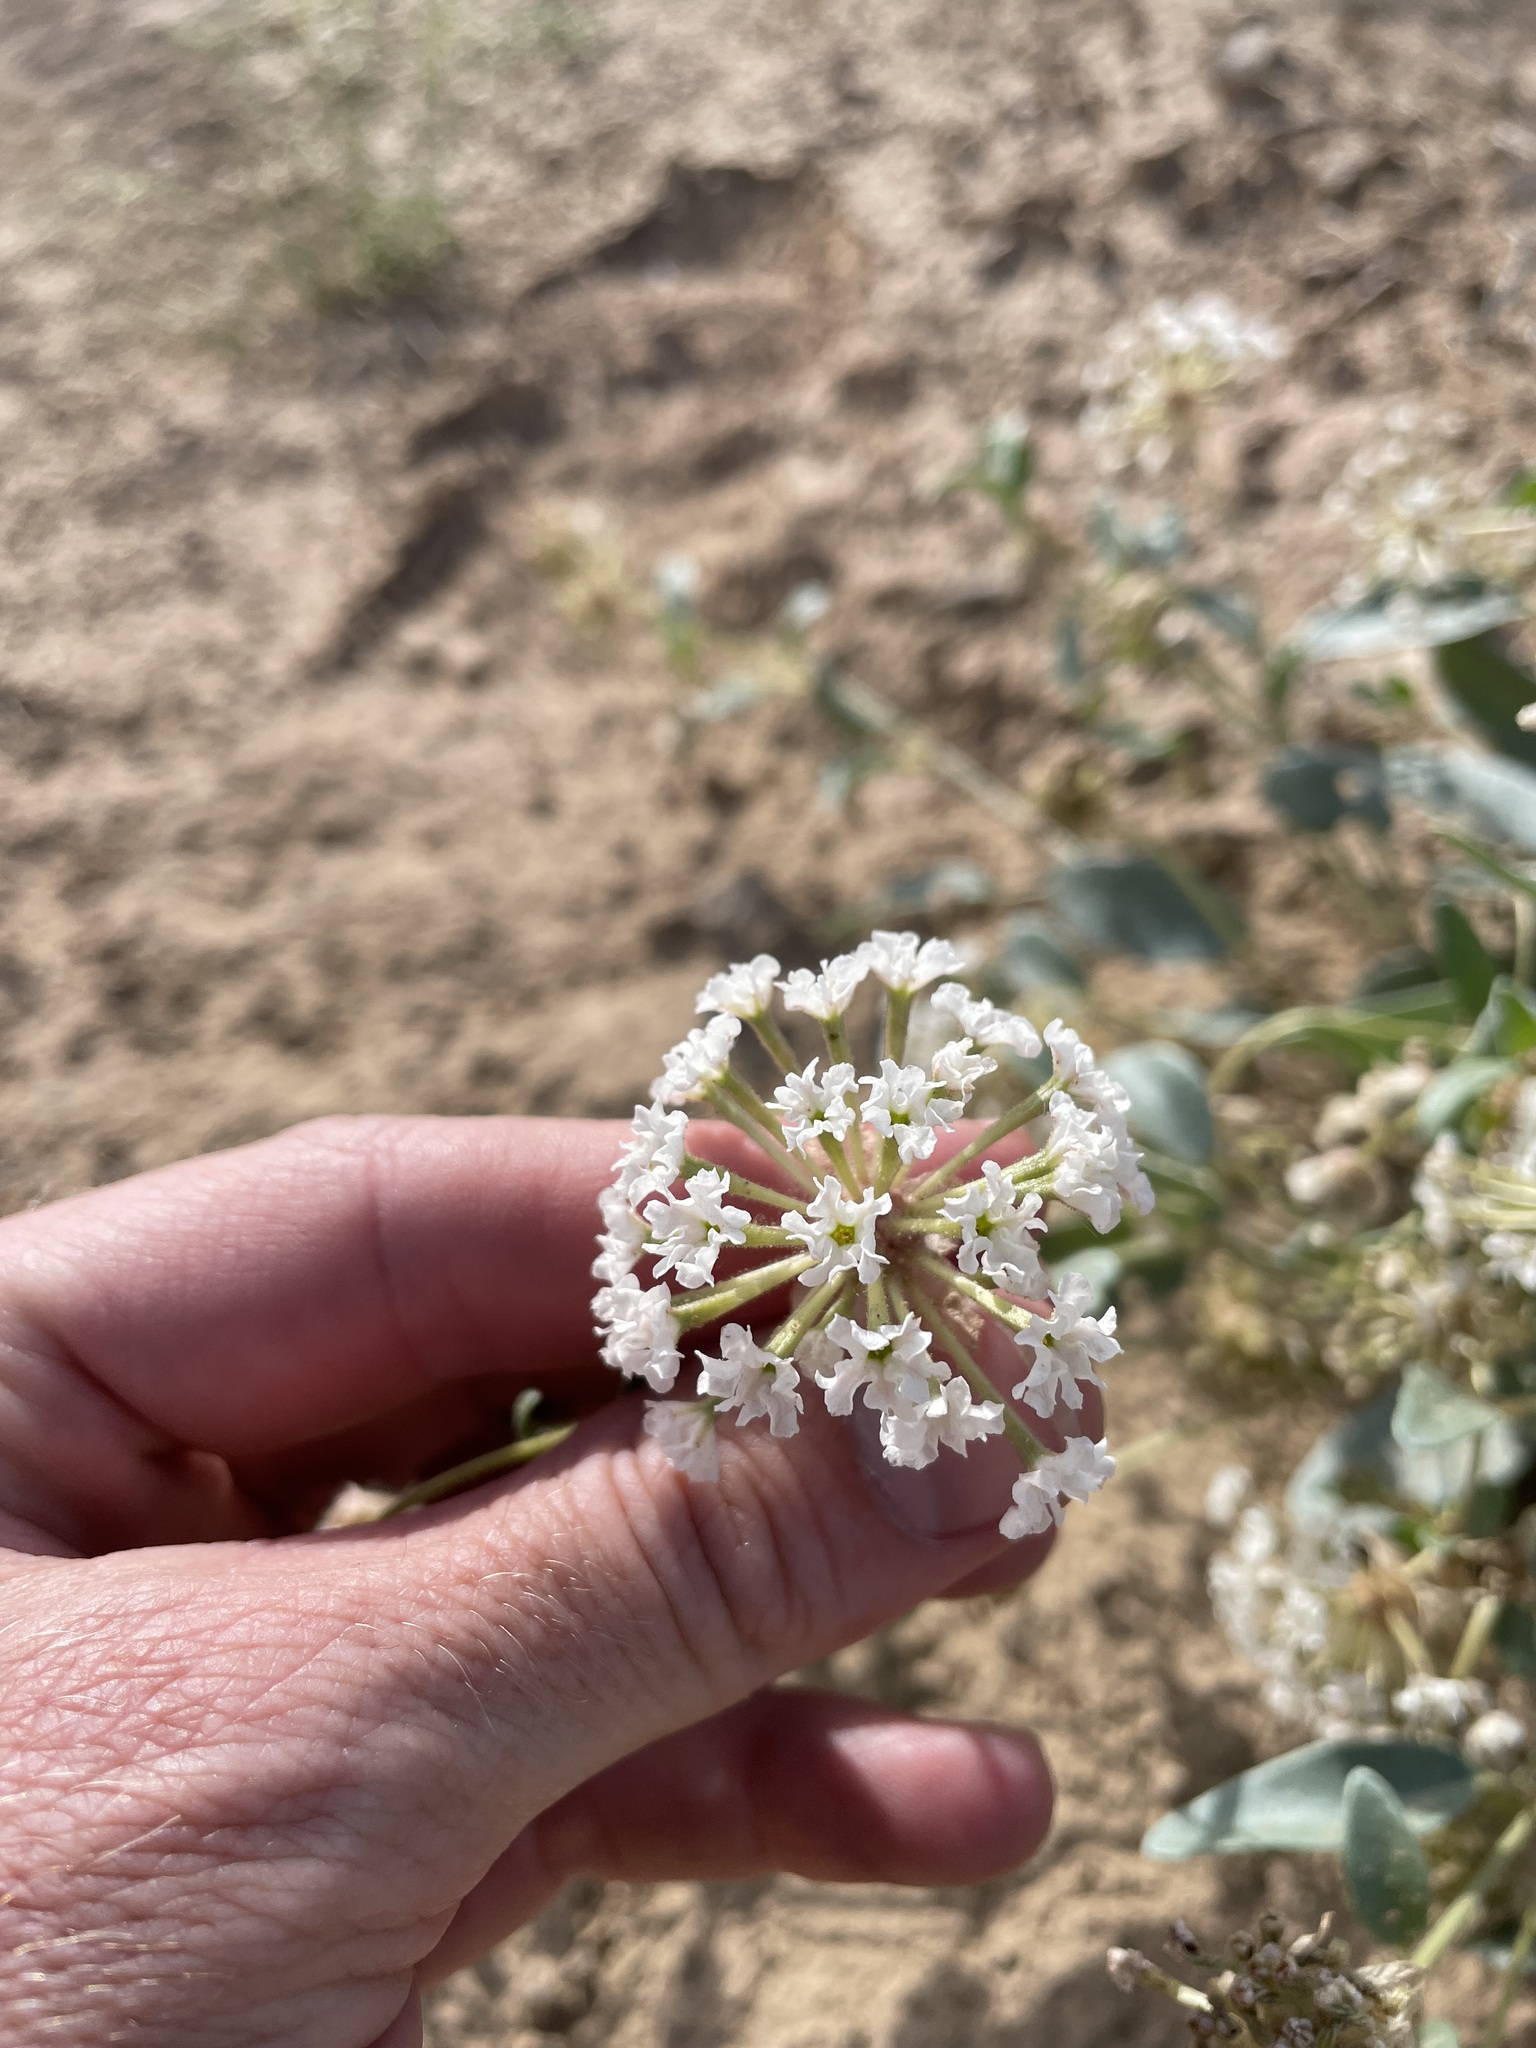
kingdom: Plantae
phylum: Tracheophyta
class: Magnoliopsida
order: Caryophyllales
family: Nyctaginaceae
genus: Abronia
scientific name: Abronia elliptica
